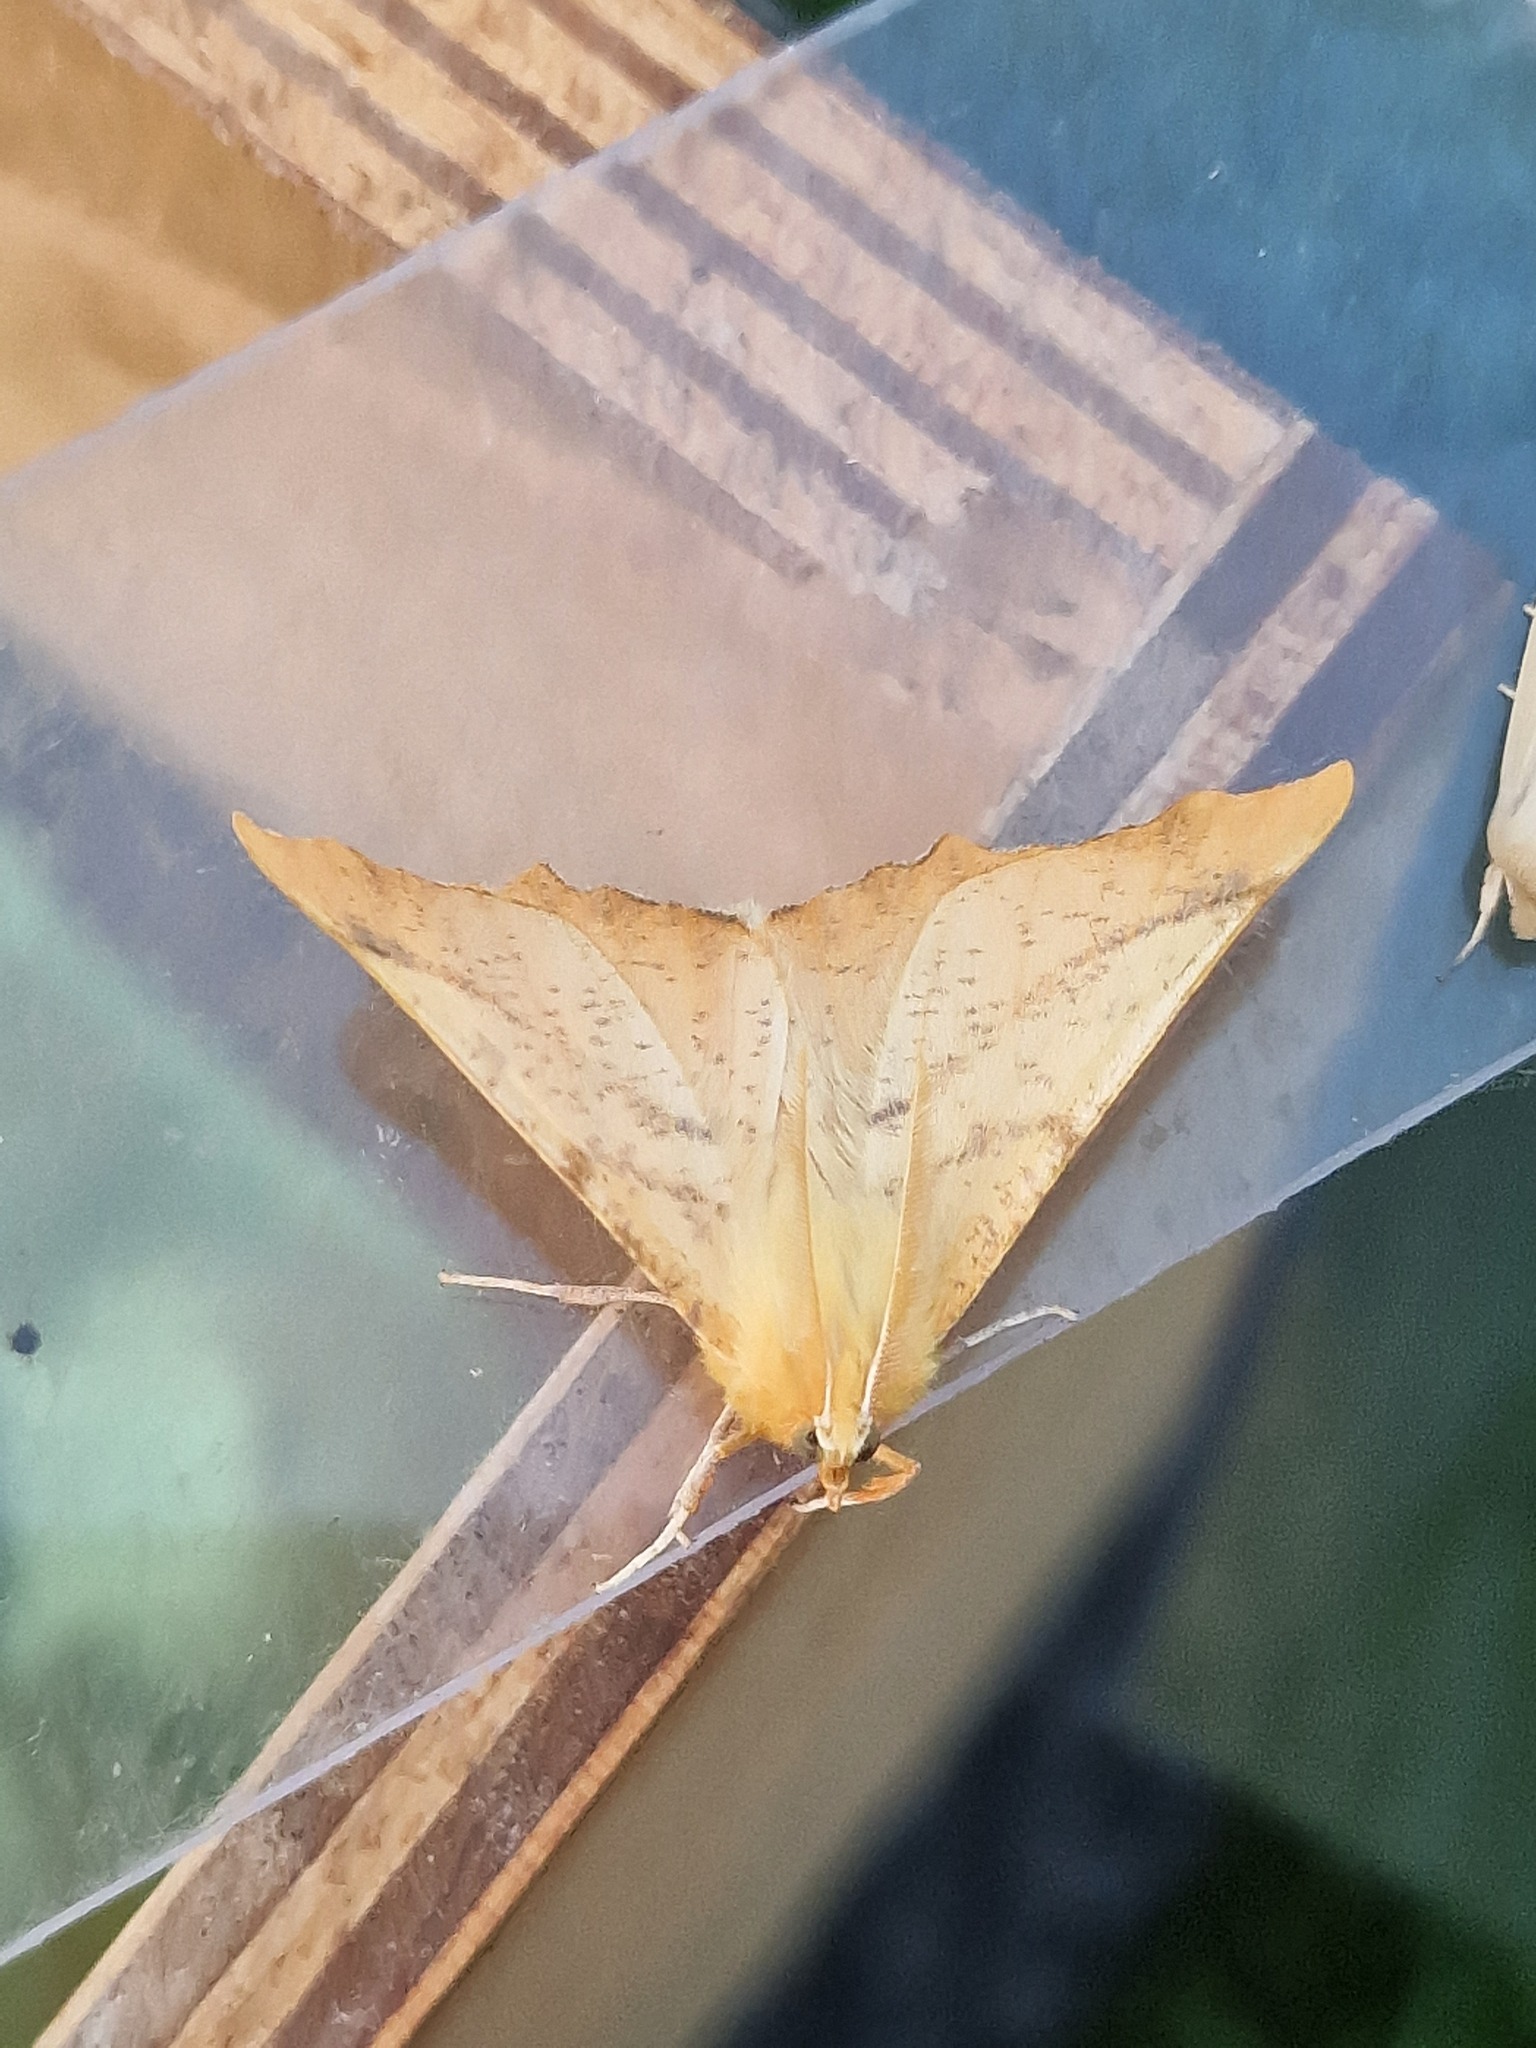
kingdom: Animalia
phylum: Arthropoda
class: Insecta
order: Lepidoptera
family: Geometridae
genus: Ennomos
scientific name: Ennomos autumnaria
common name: Large thorn
